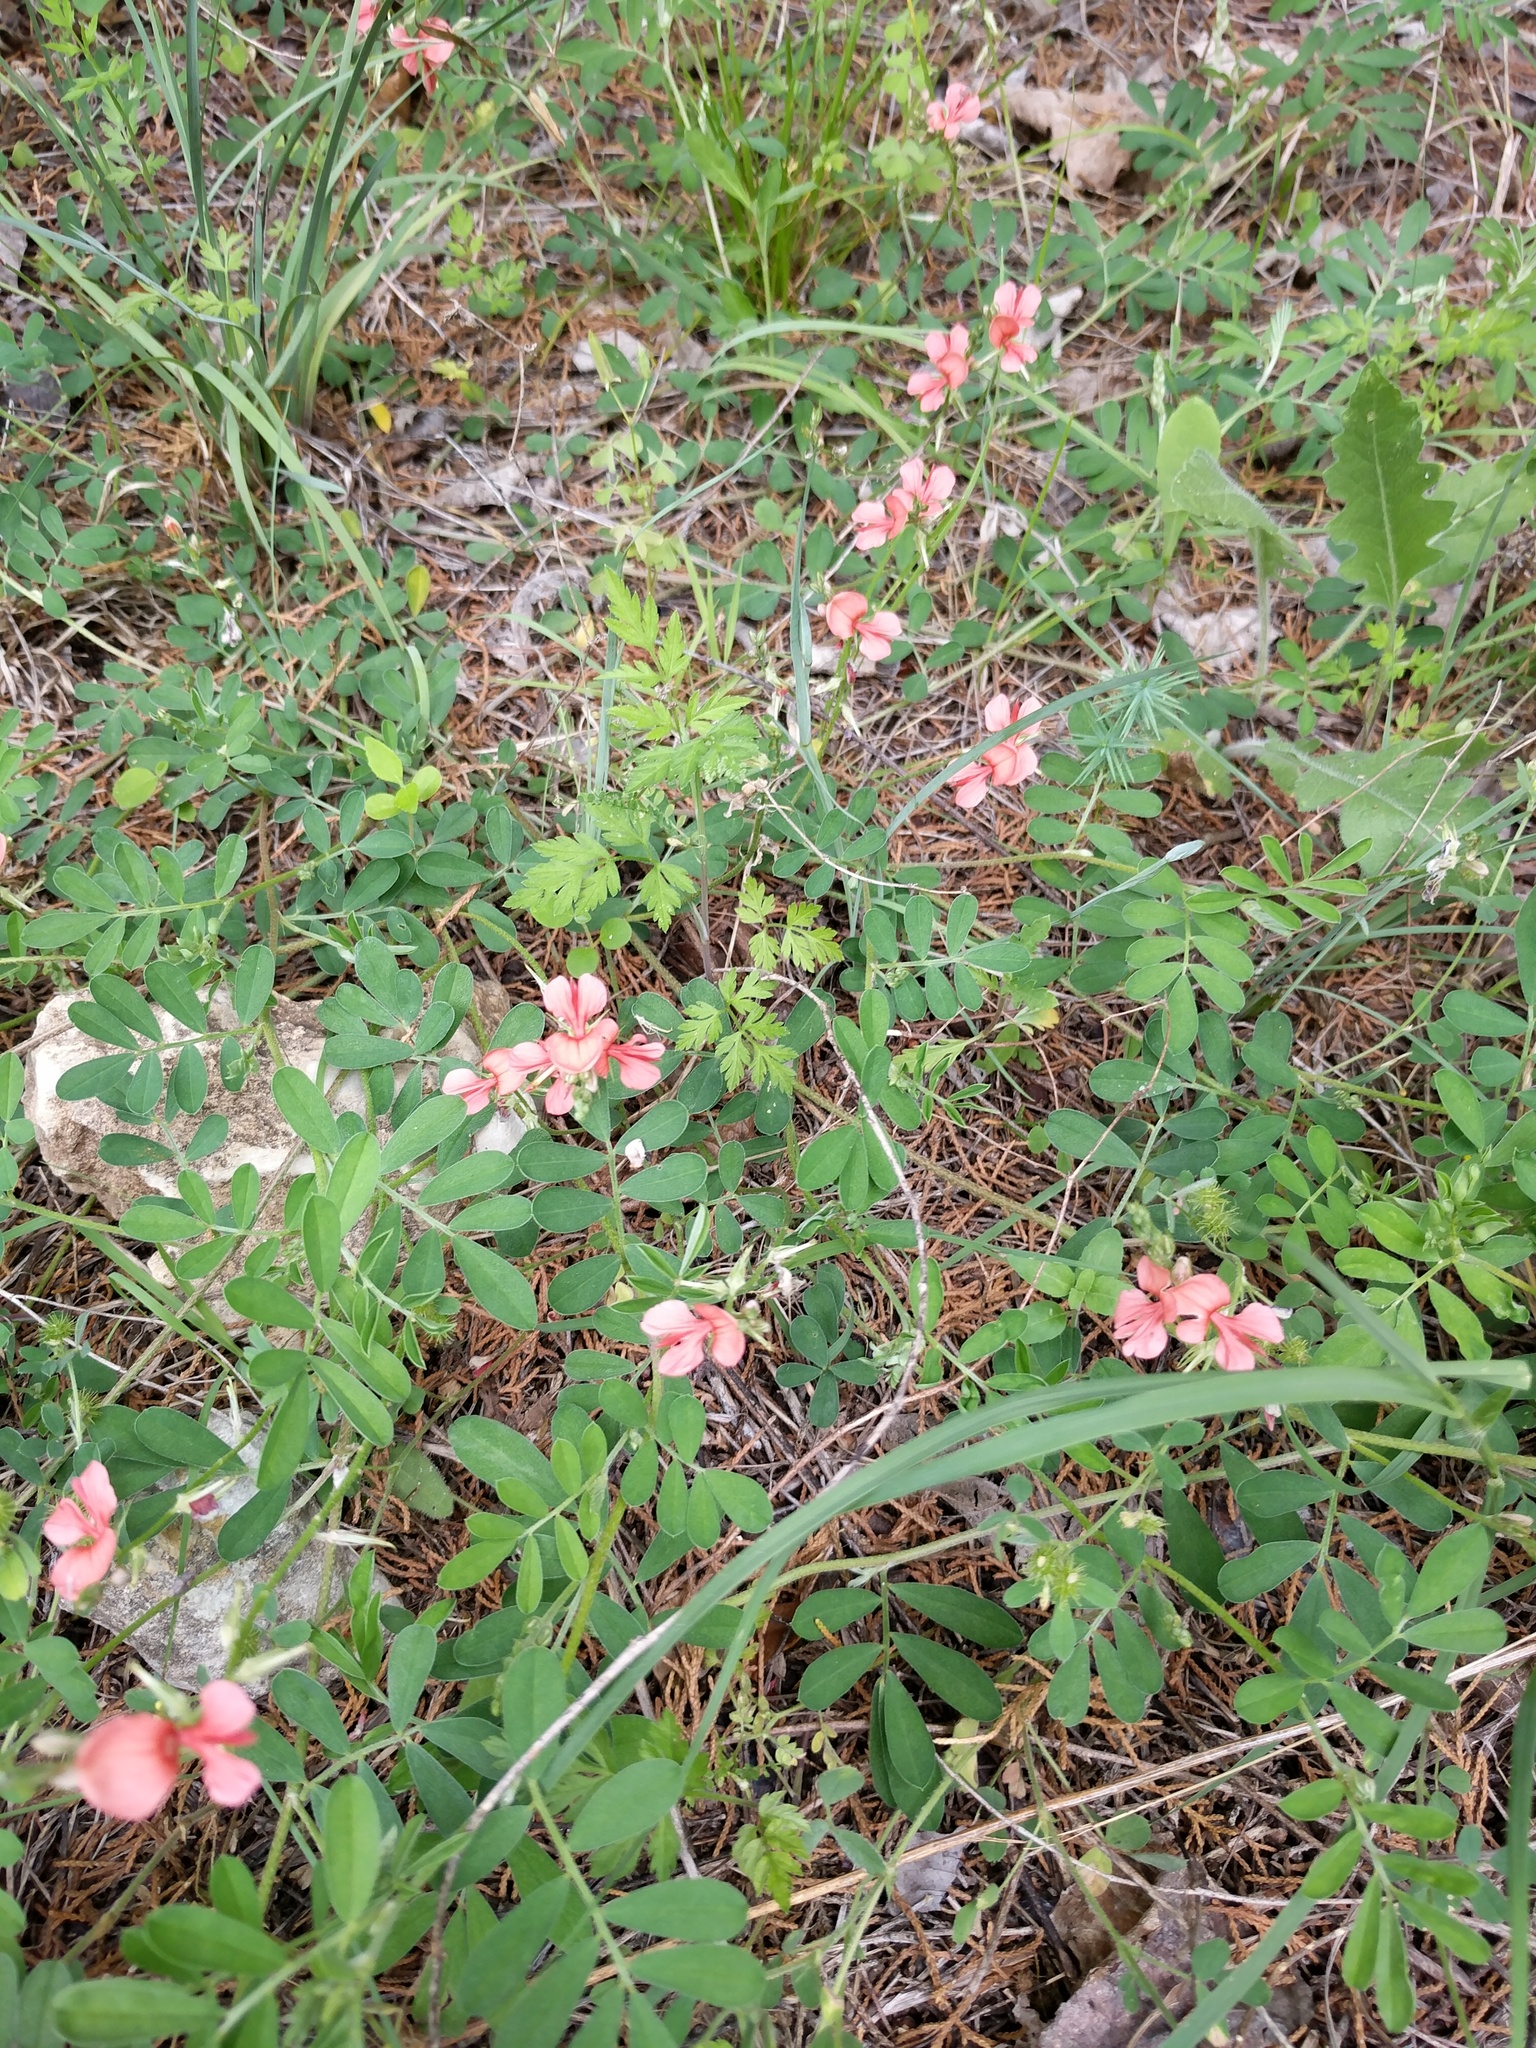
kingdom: Plantae
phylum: Tracheophyta
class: Magnoliopsida
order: Fabales
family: Fabaceae
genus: Indigofera
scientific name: Indigofera miniata
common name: Coast indigo
